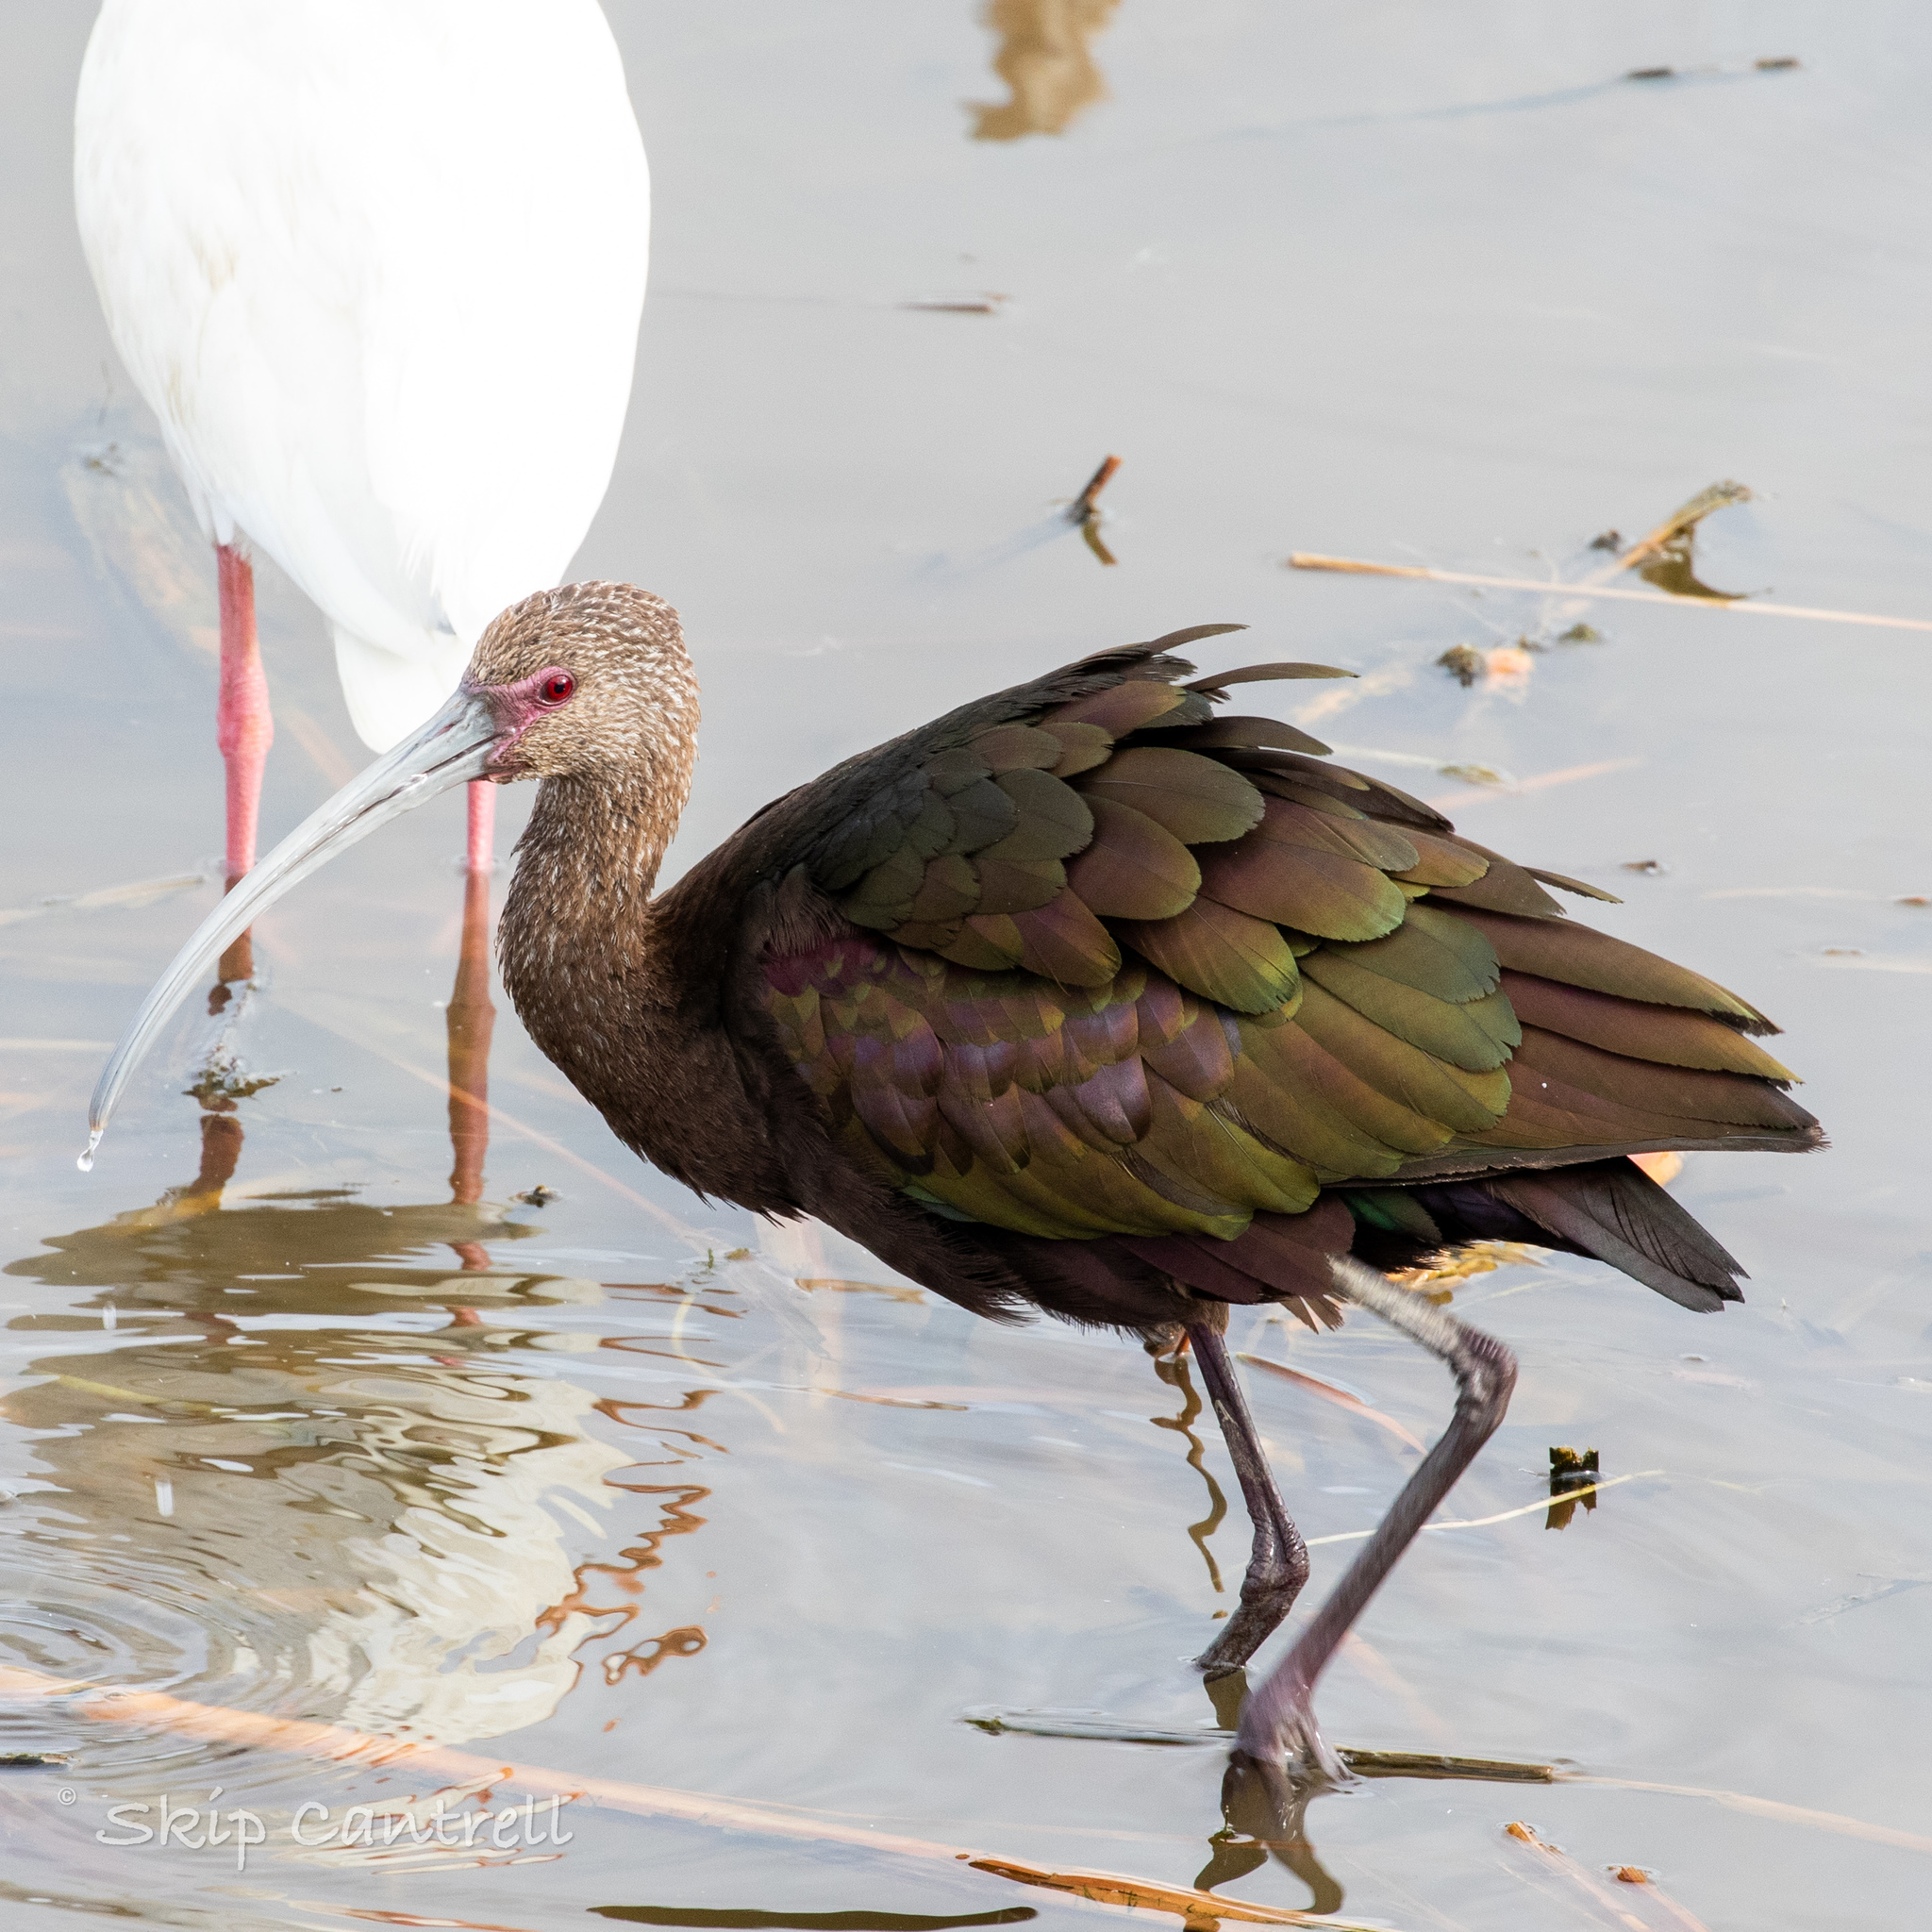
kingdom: Animalia
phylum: Chordata
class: Aves
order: Pelecaniformes
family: Threskiornithidae
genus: Plegadis
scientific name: Plegadis chihi
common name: White-faced ibis
